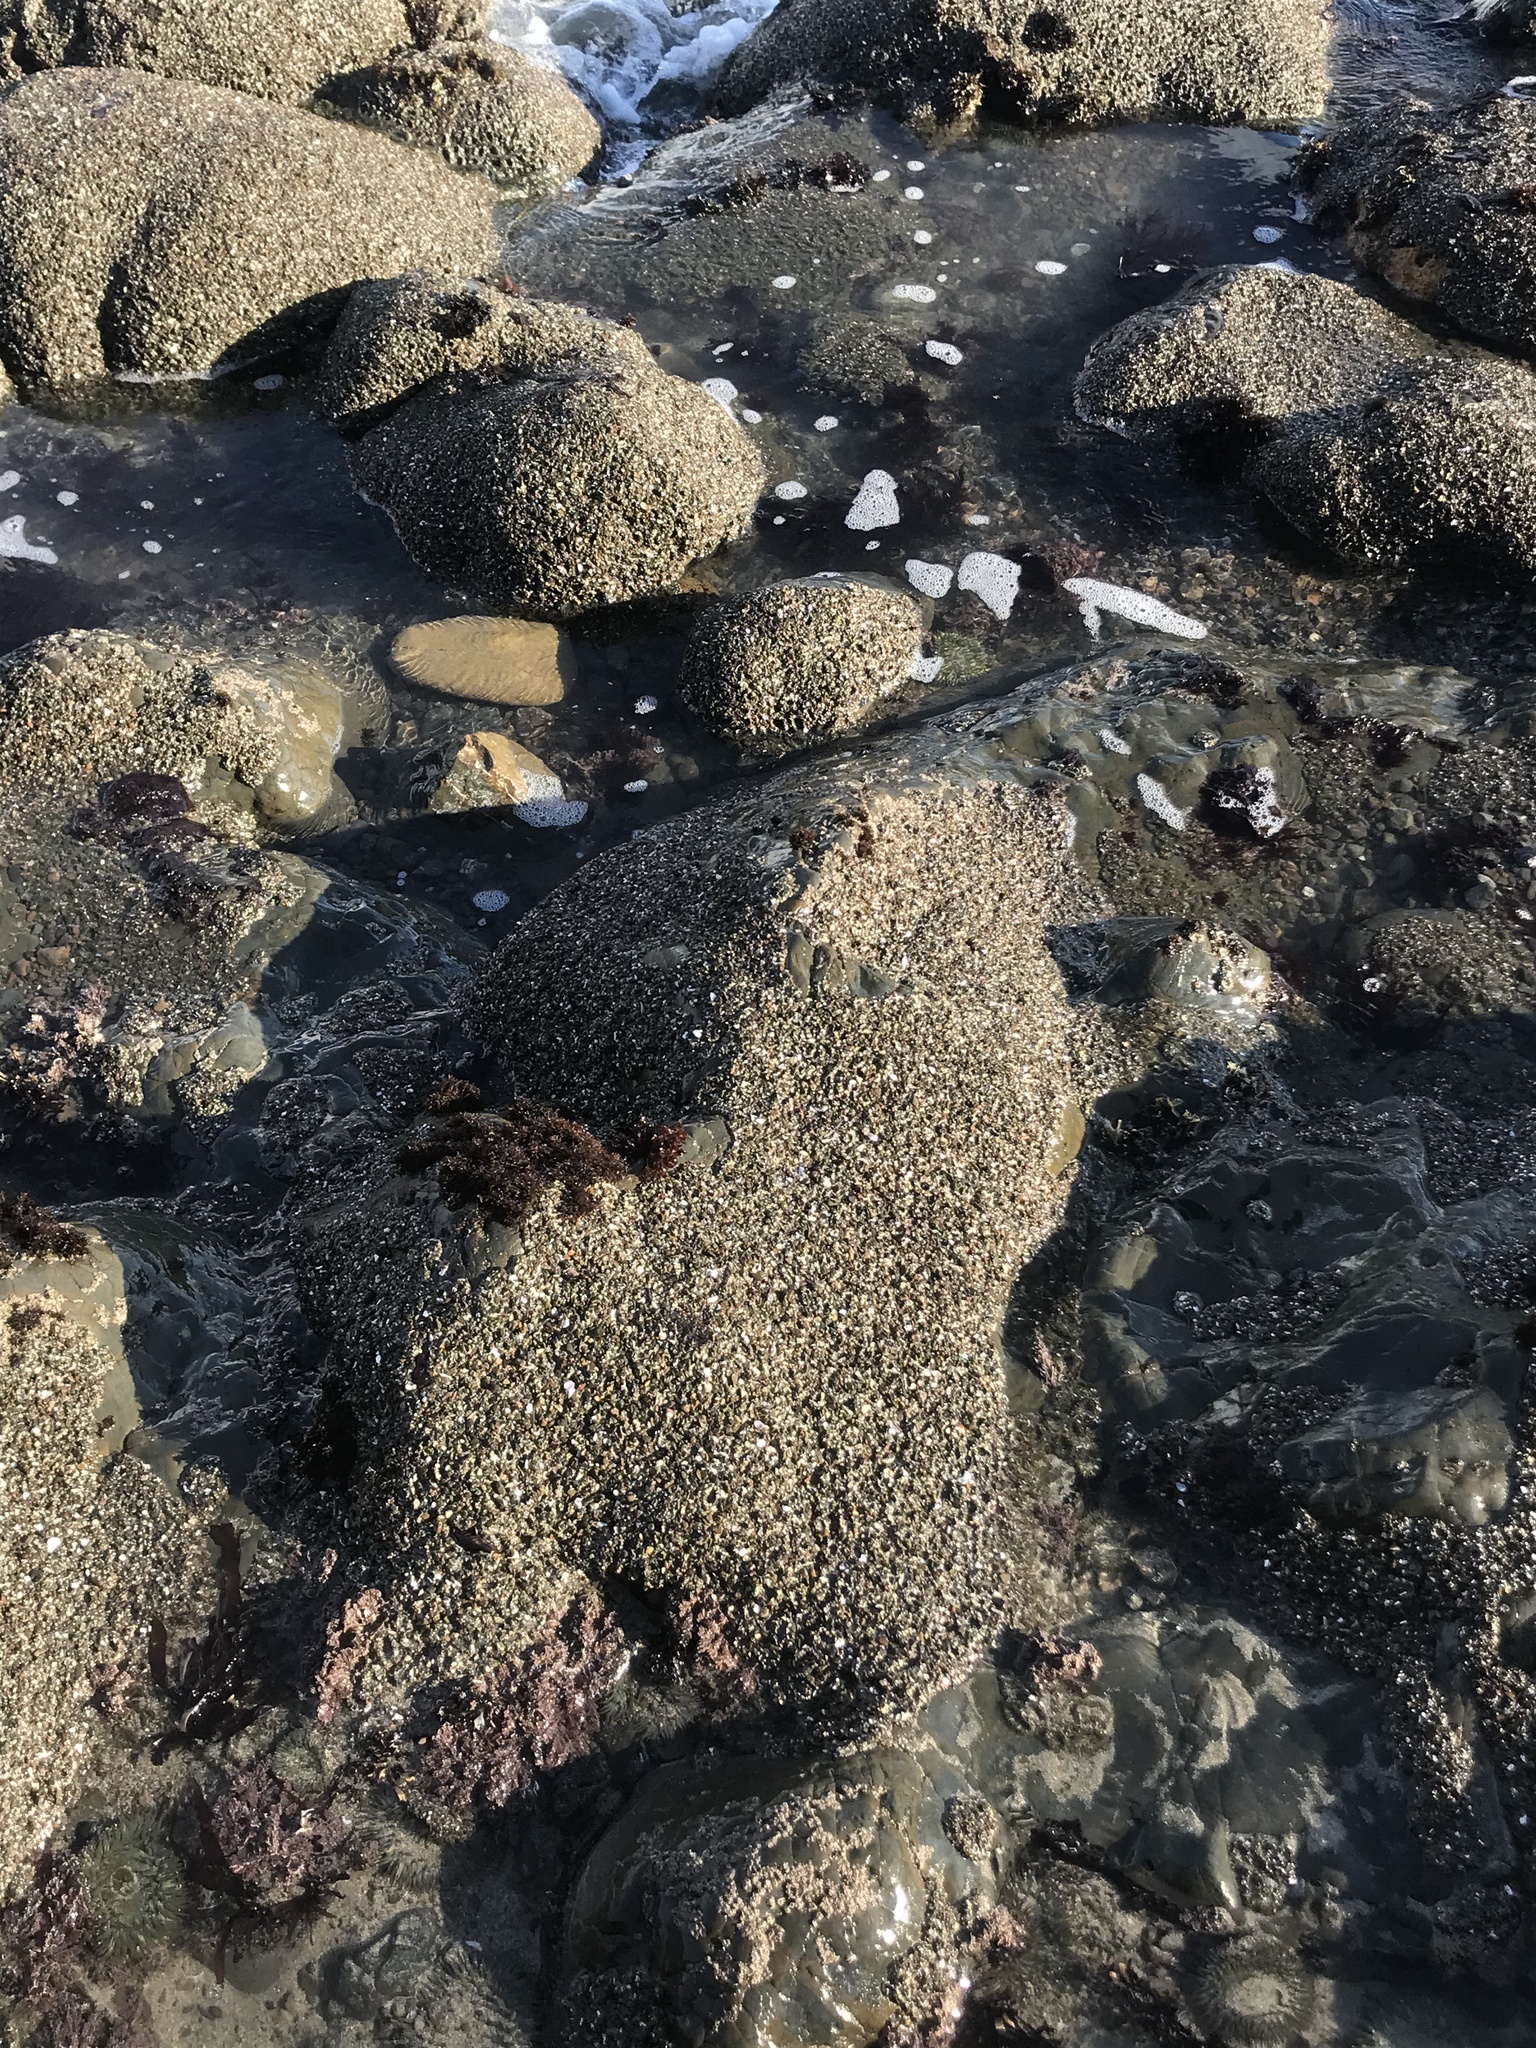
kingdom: Animalia
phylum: Cnidaria
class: Anthozoa
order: Actiniaria
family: Actiniidae
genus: Anthopleura
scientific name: Anthopleura elegantissima
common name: Clonal anemone
